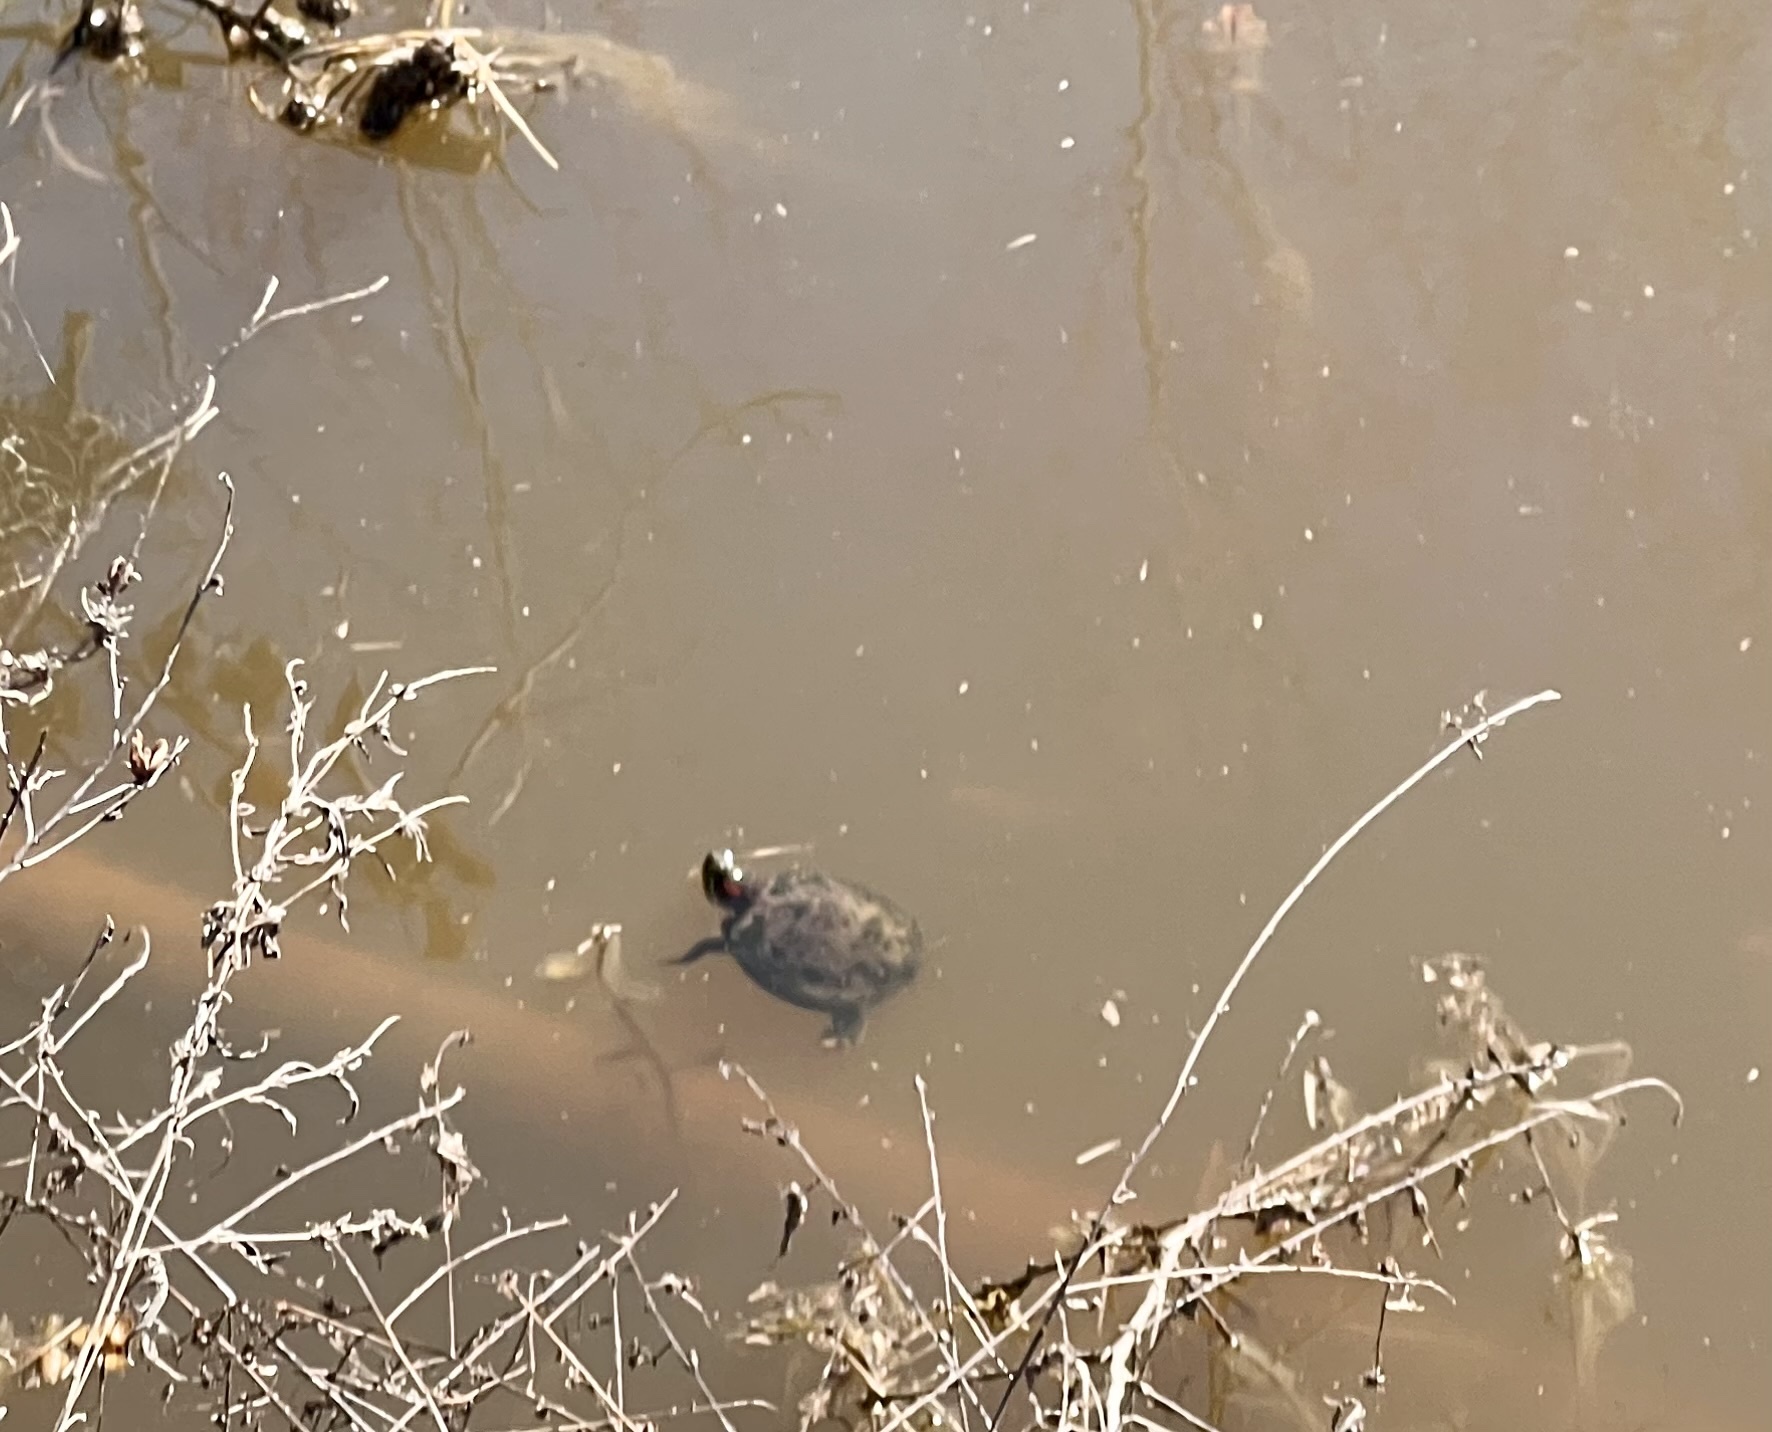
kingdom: Animalia
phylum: Chordata
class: Testudines
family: Emydidae
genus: Trachemys
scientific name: Trachemys scripta
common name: Slider
